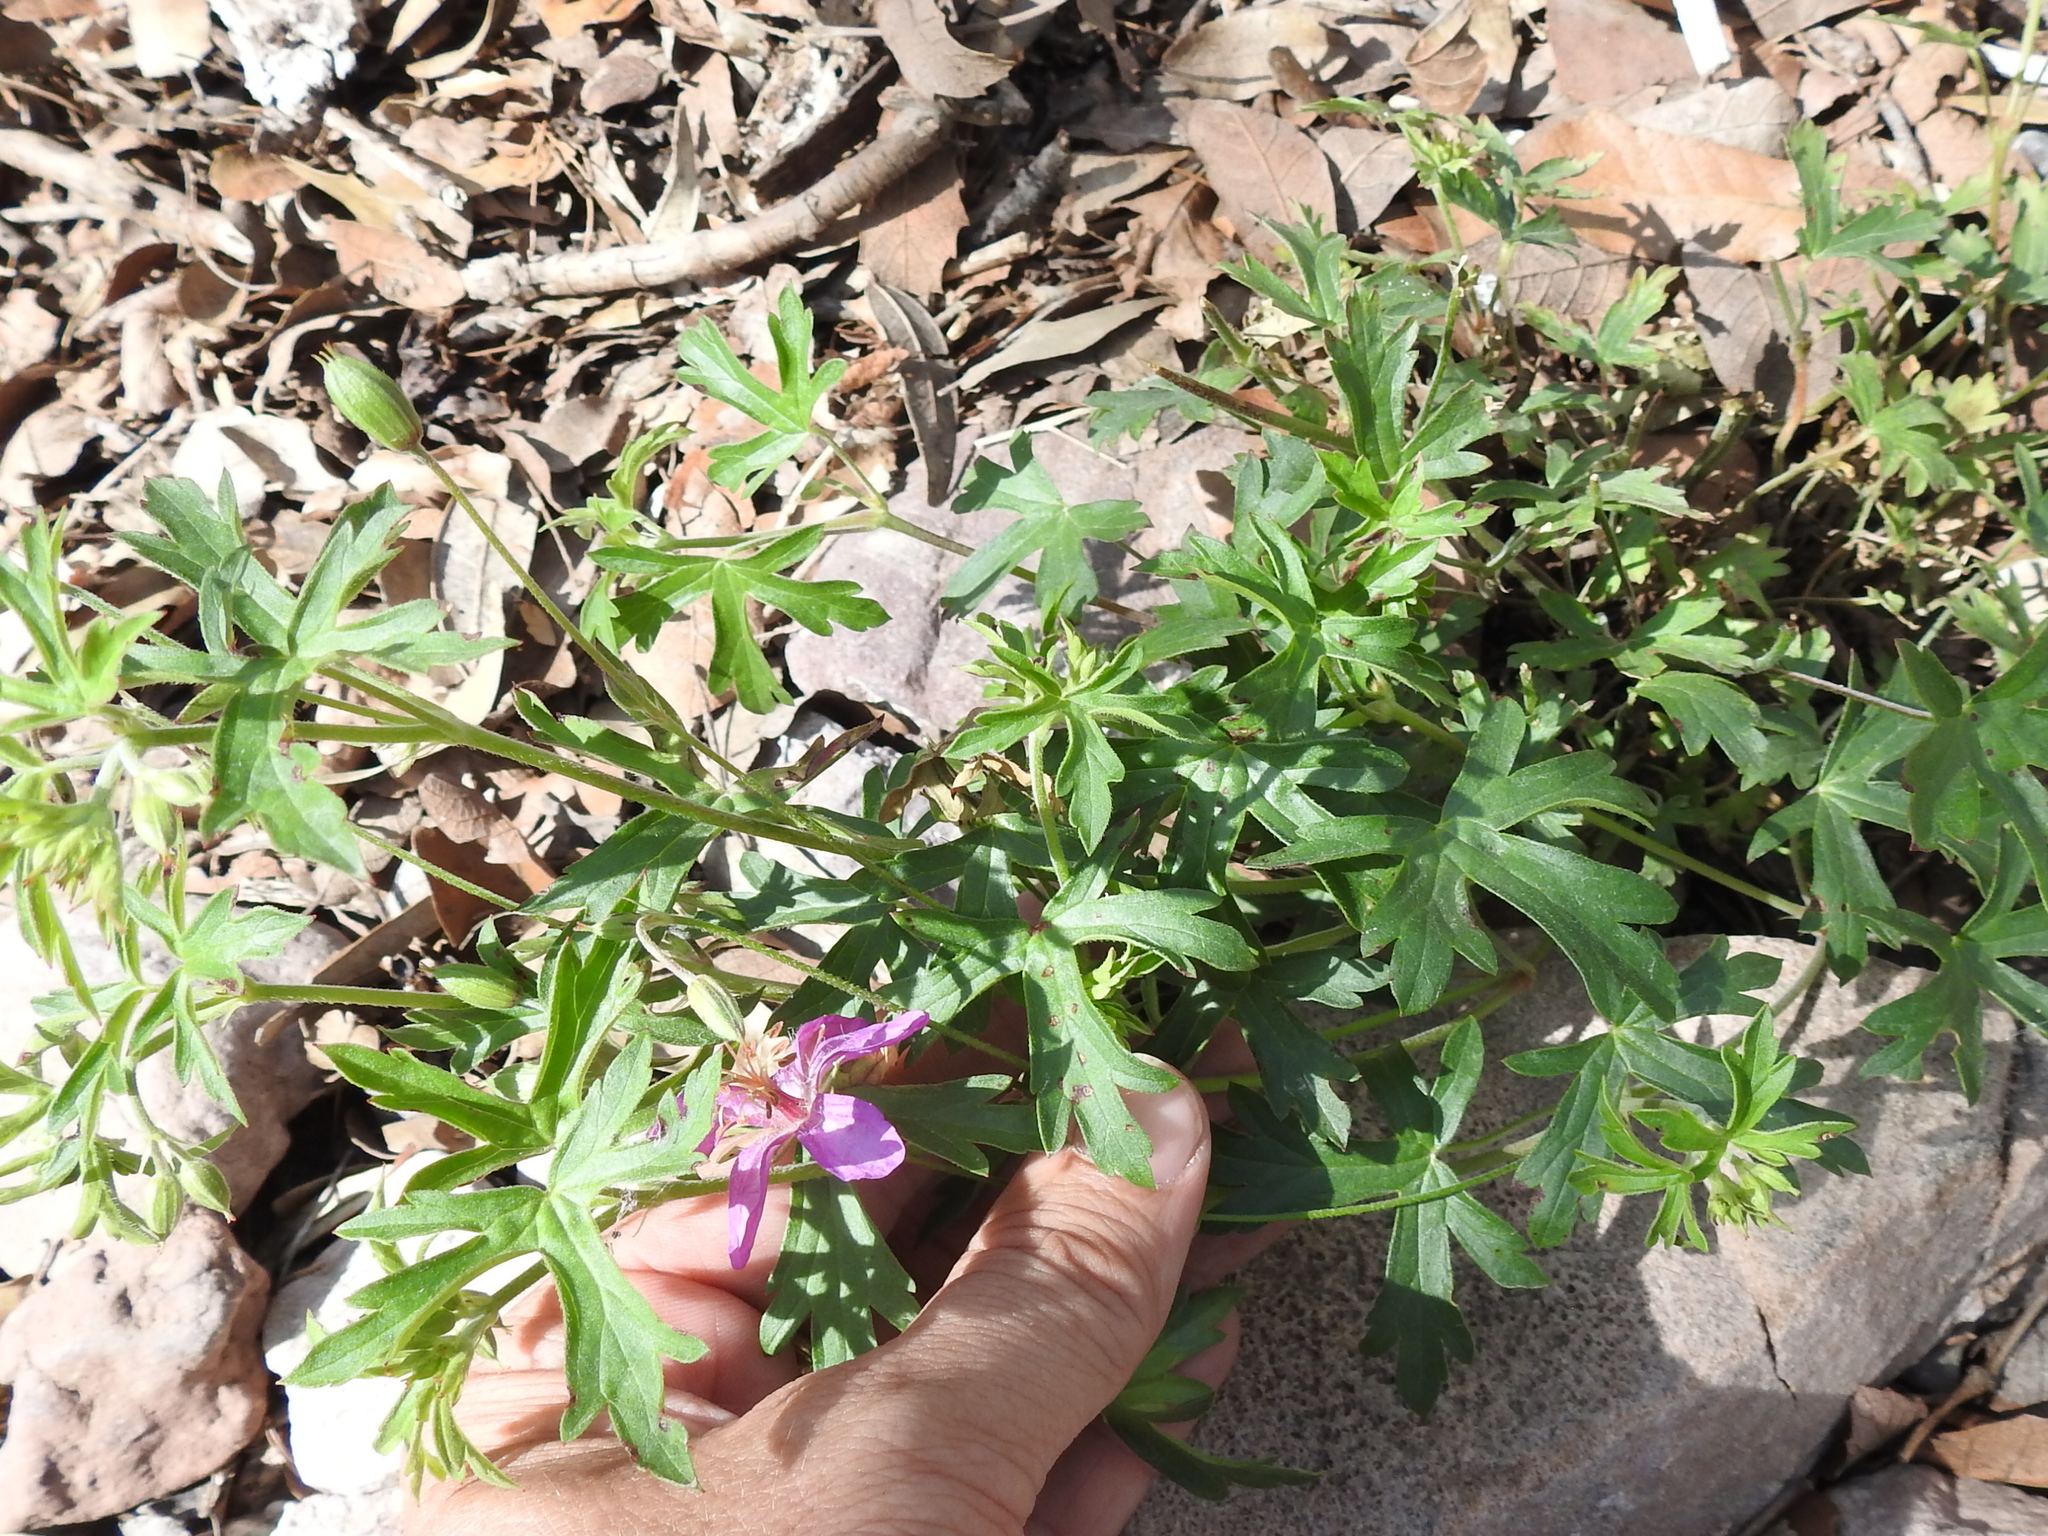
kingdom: Plantae
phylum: Tracheophyta
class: Magnoliopsida
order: Geraniales
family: Geraniaceae
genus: Geranium
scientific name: Geranium caespitosum
